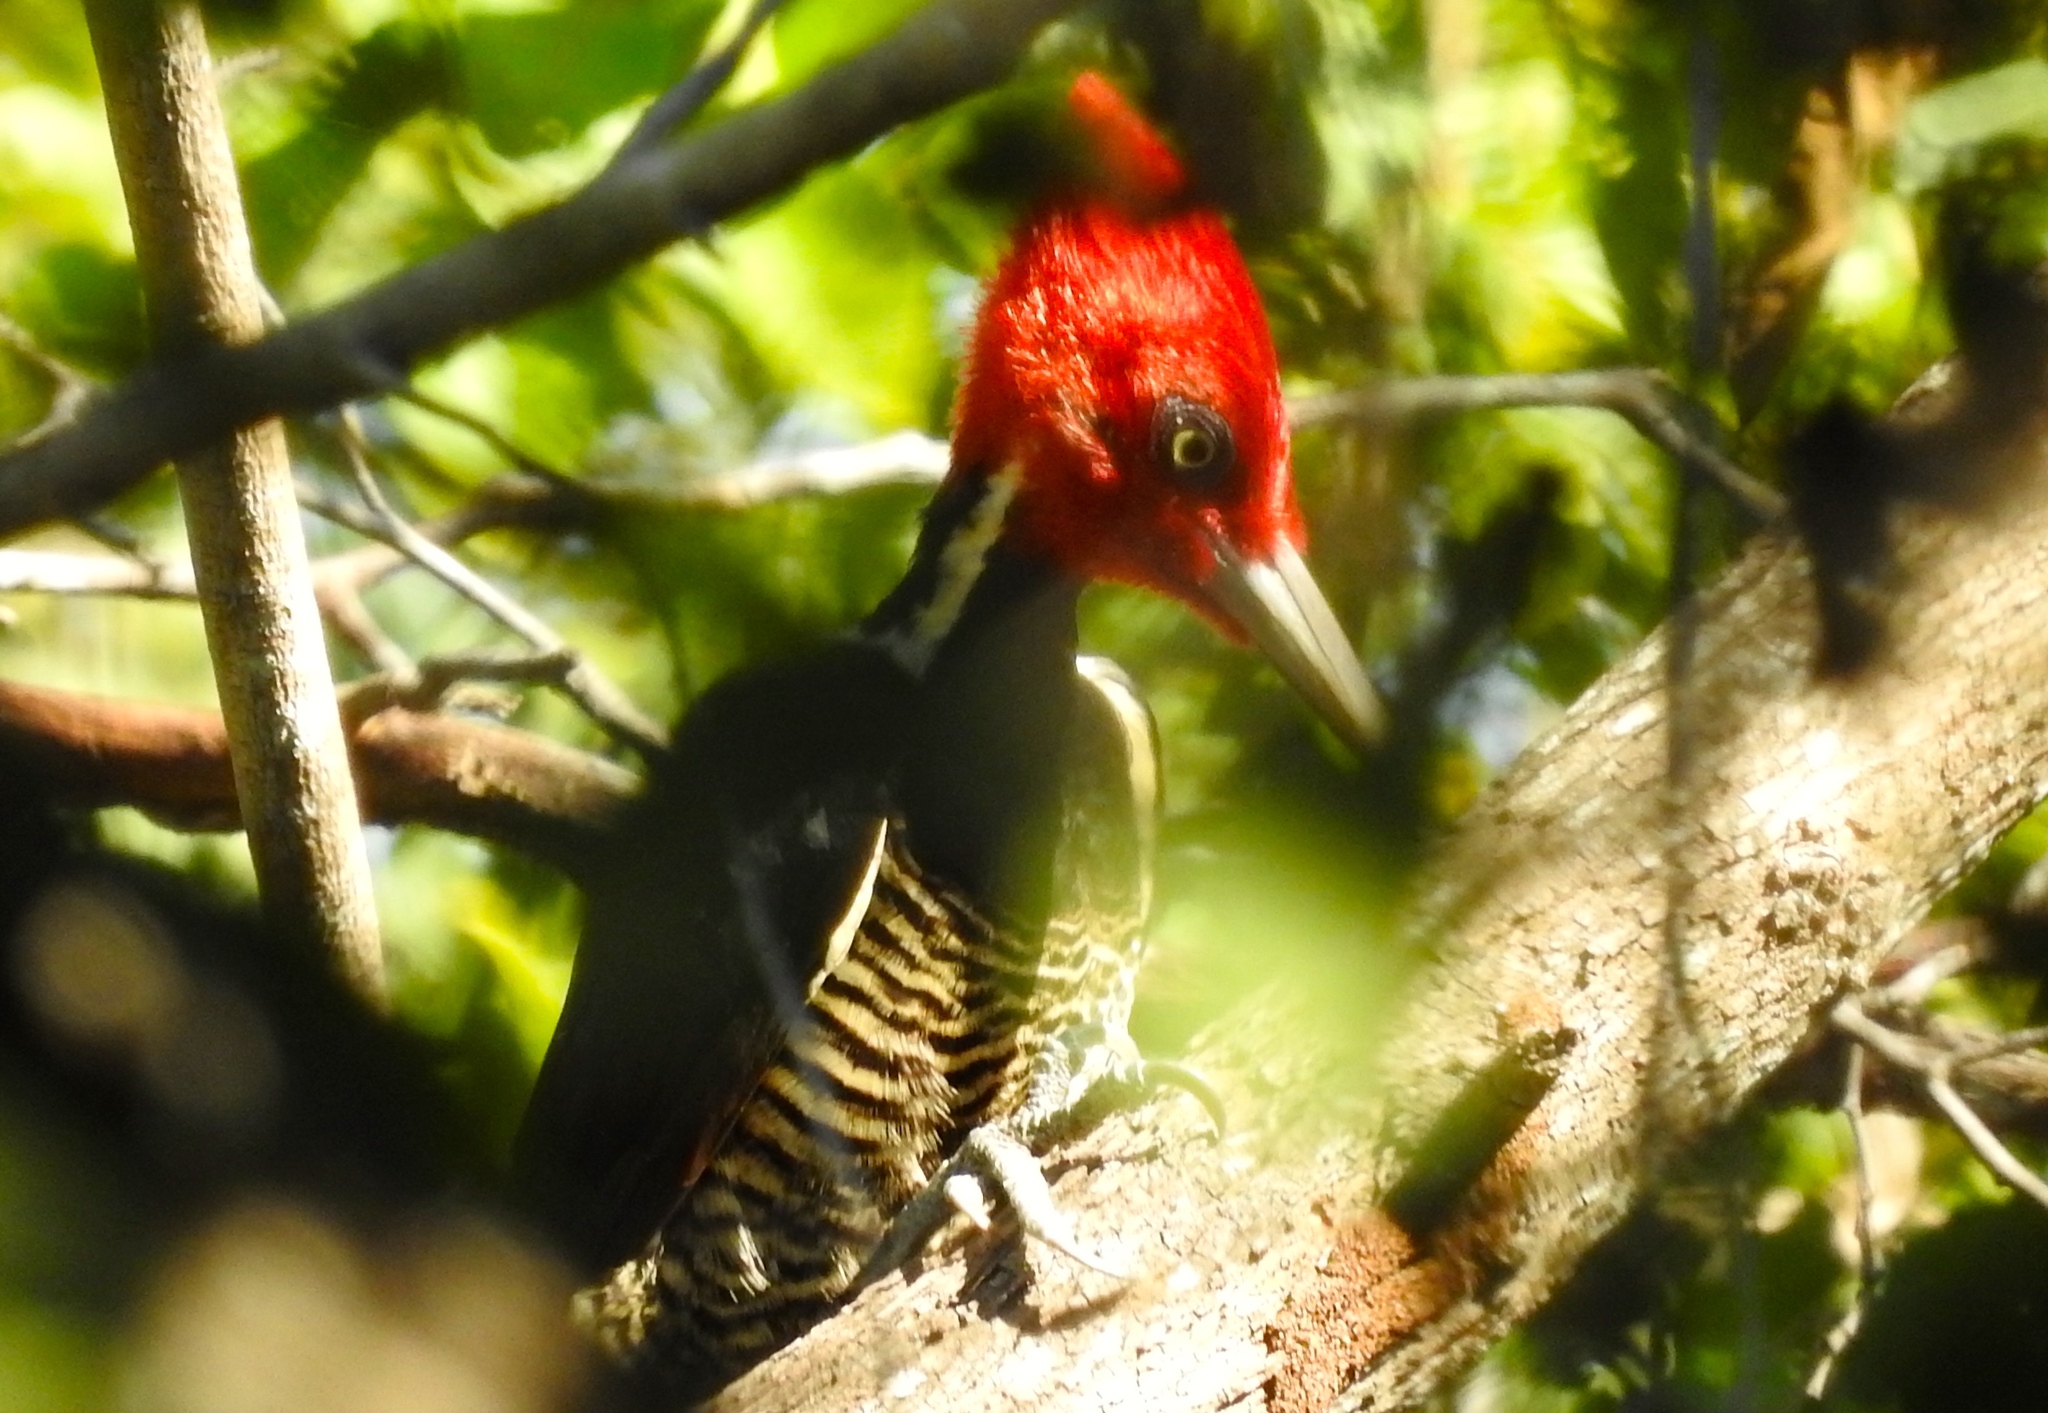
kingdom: Animalia
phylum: Chordata
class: Aves
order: Piciformes
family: Picidae
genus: Campephilus
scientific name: Campephilus guatemalensis
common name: Pale-billed woodpecker
